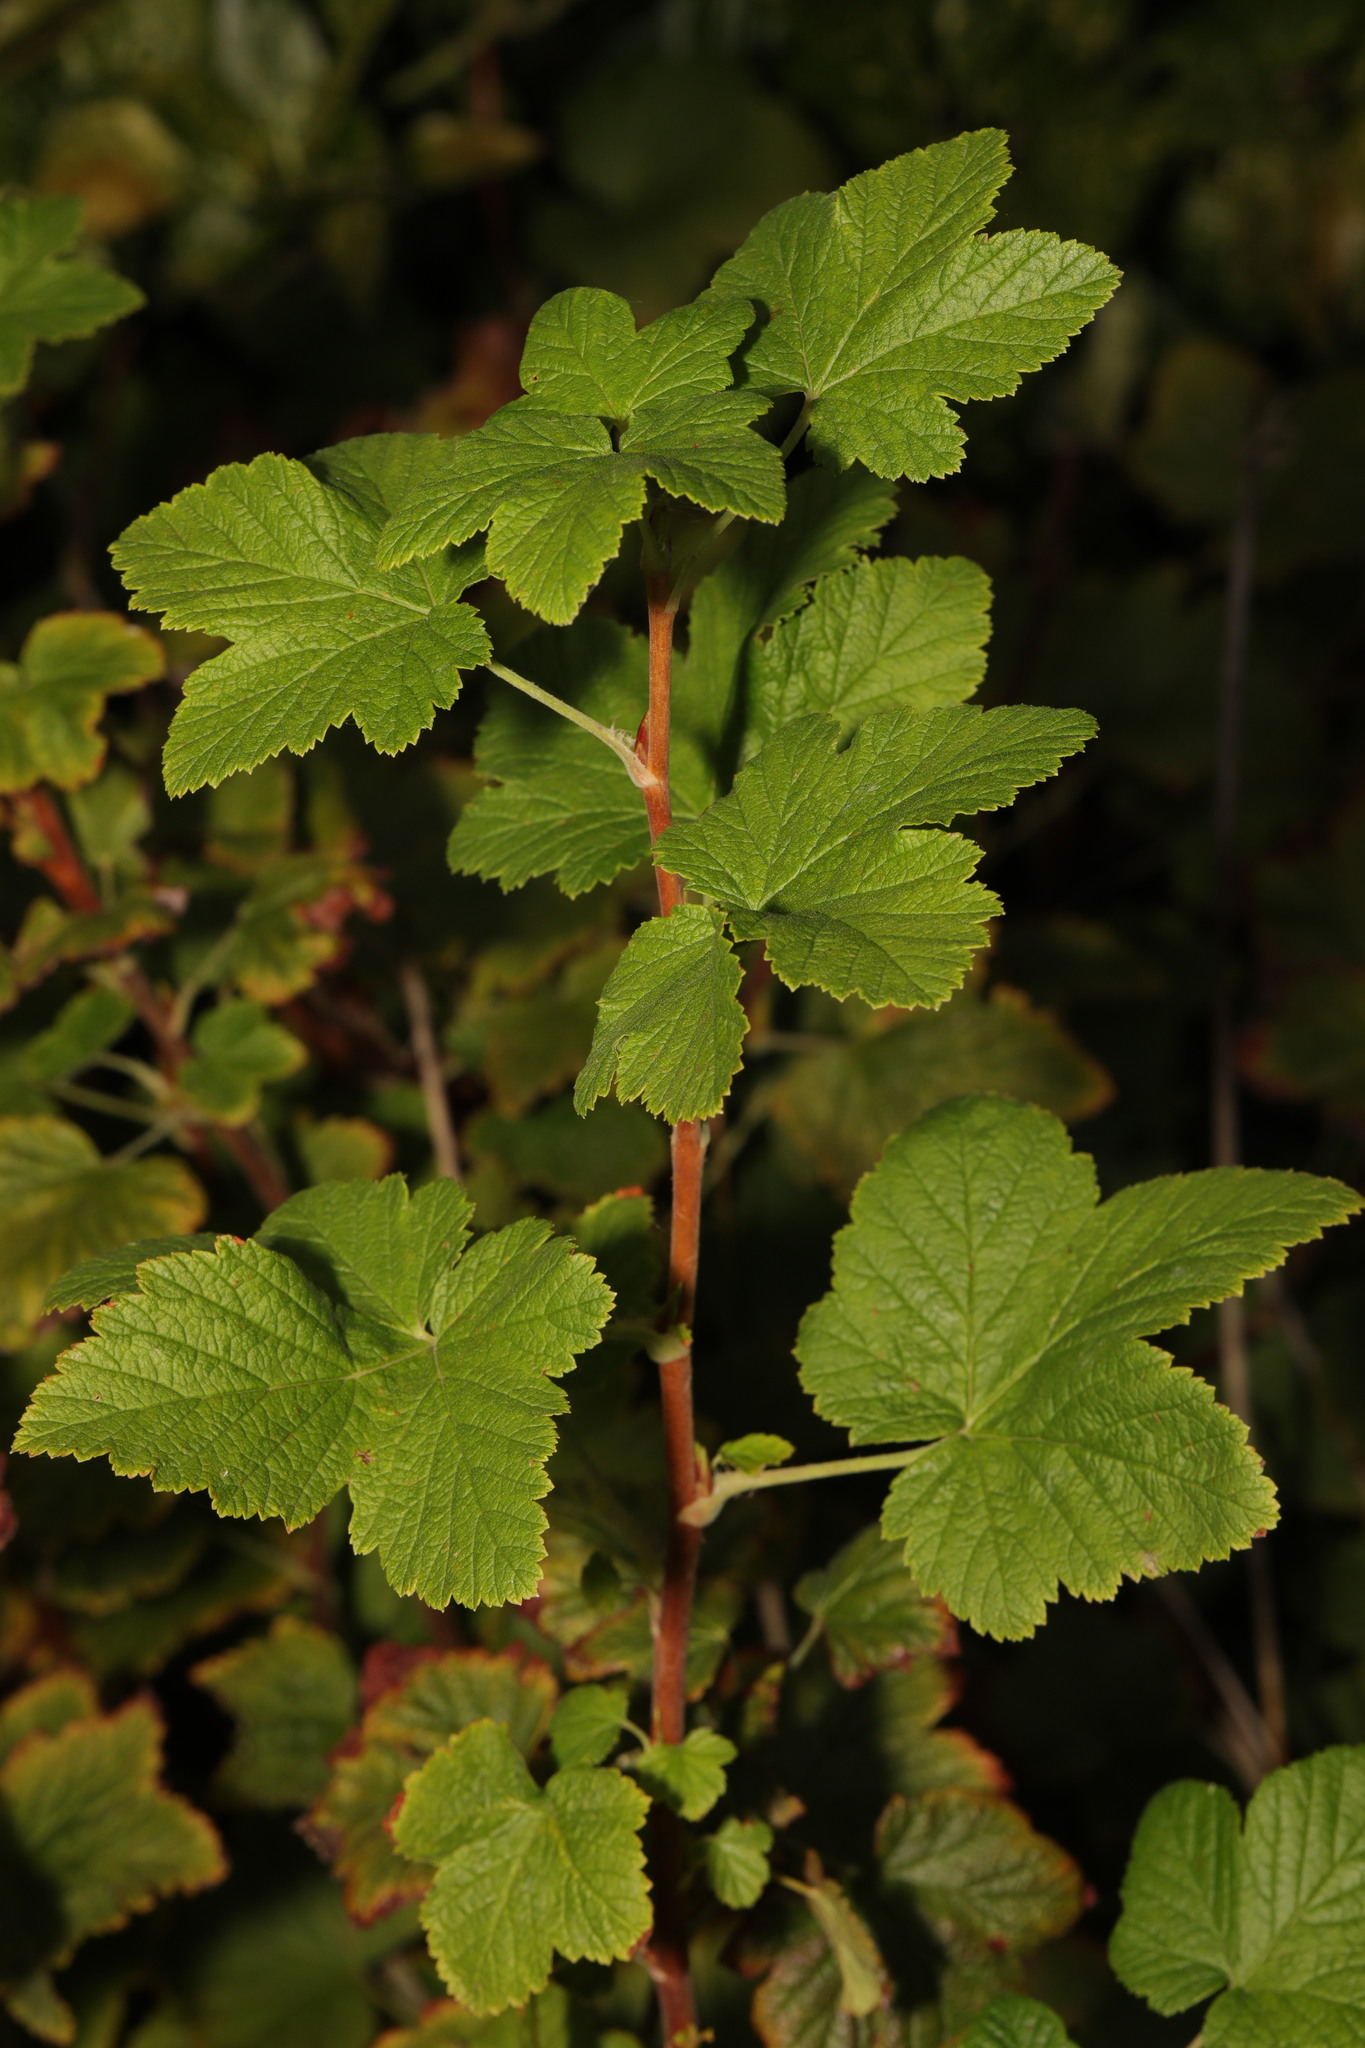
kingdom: Plantae
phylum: Tracheophyta
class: Magnoliopsida
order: Saxifragales
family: Grossulariaceae
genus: Ribes
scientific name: Ribes sanguineum
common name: Flowering currant
